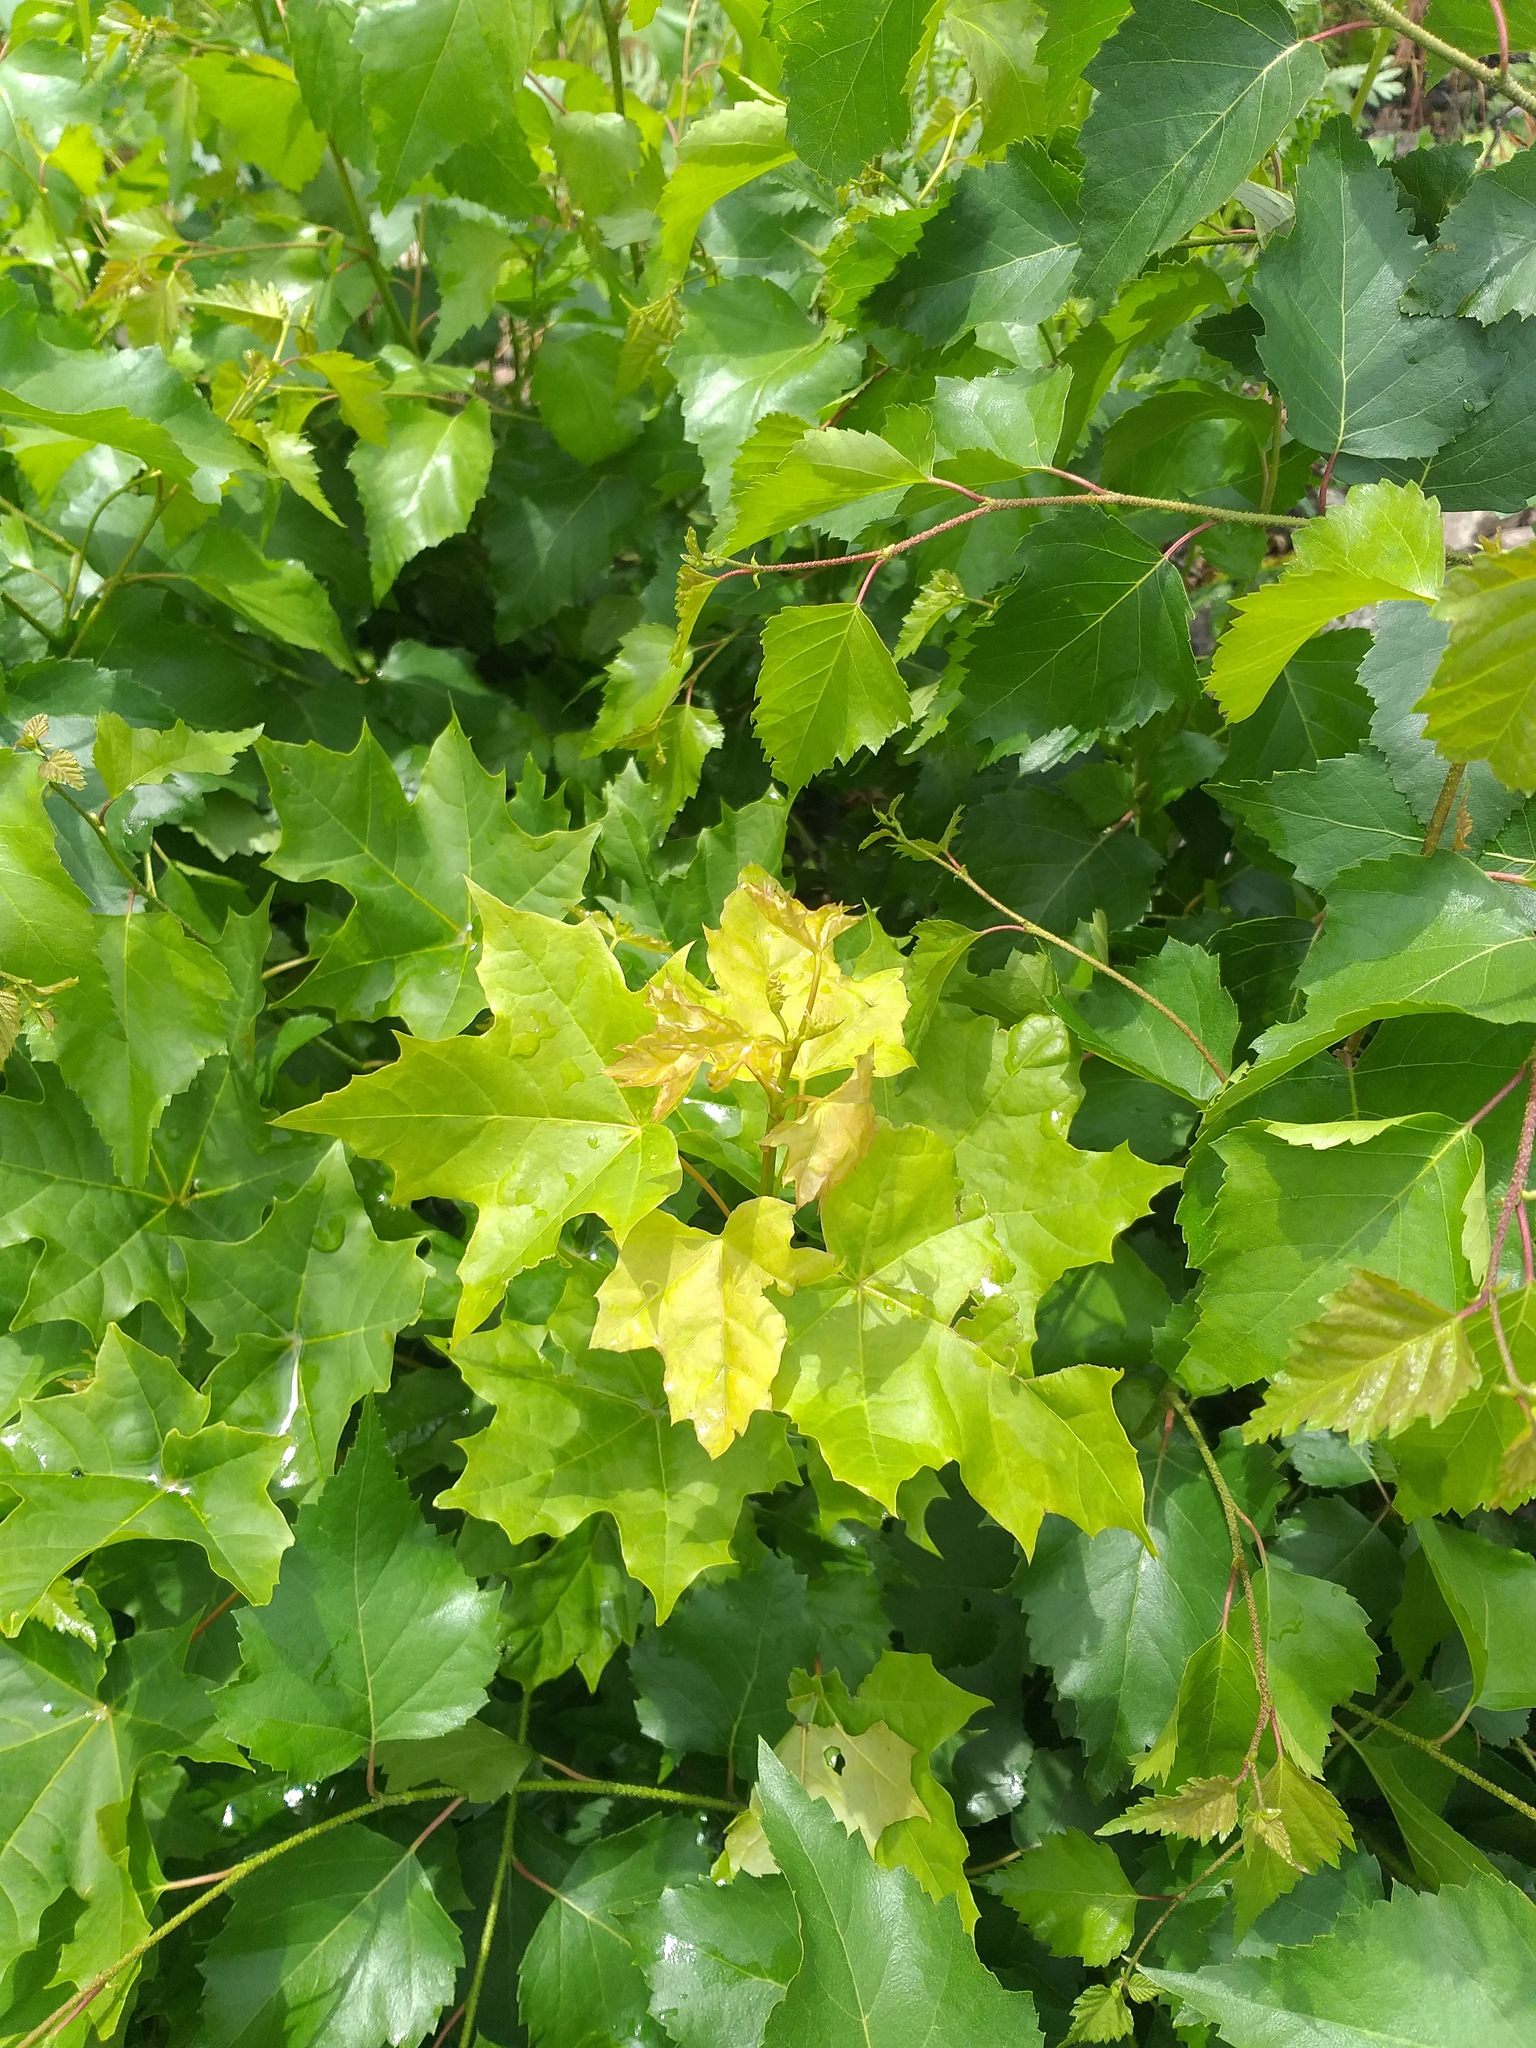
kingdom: Plantae
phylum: Tracheophyta
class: Magnoliopsida
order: Sapindales
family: Sapindaceae
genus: Acer
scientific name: Acer platanoides
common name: Norway maple
